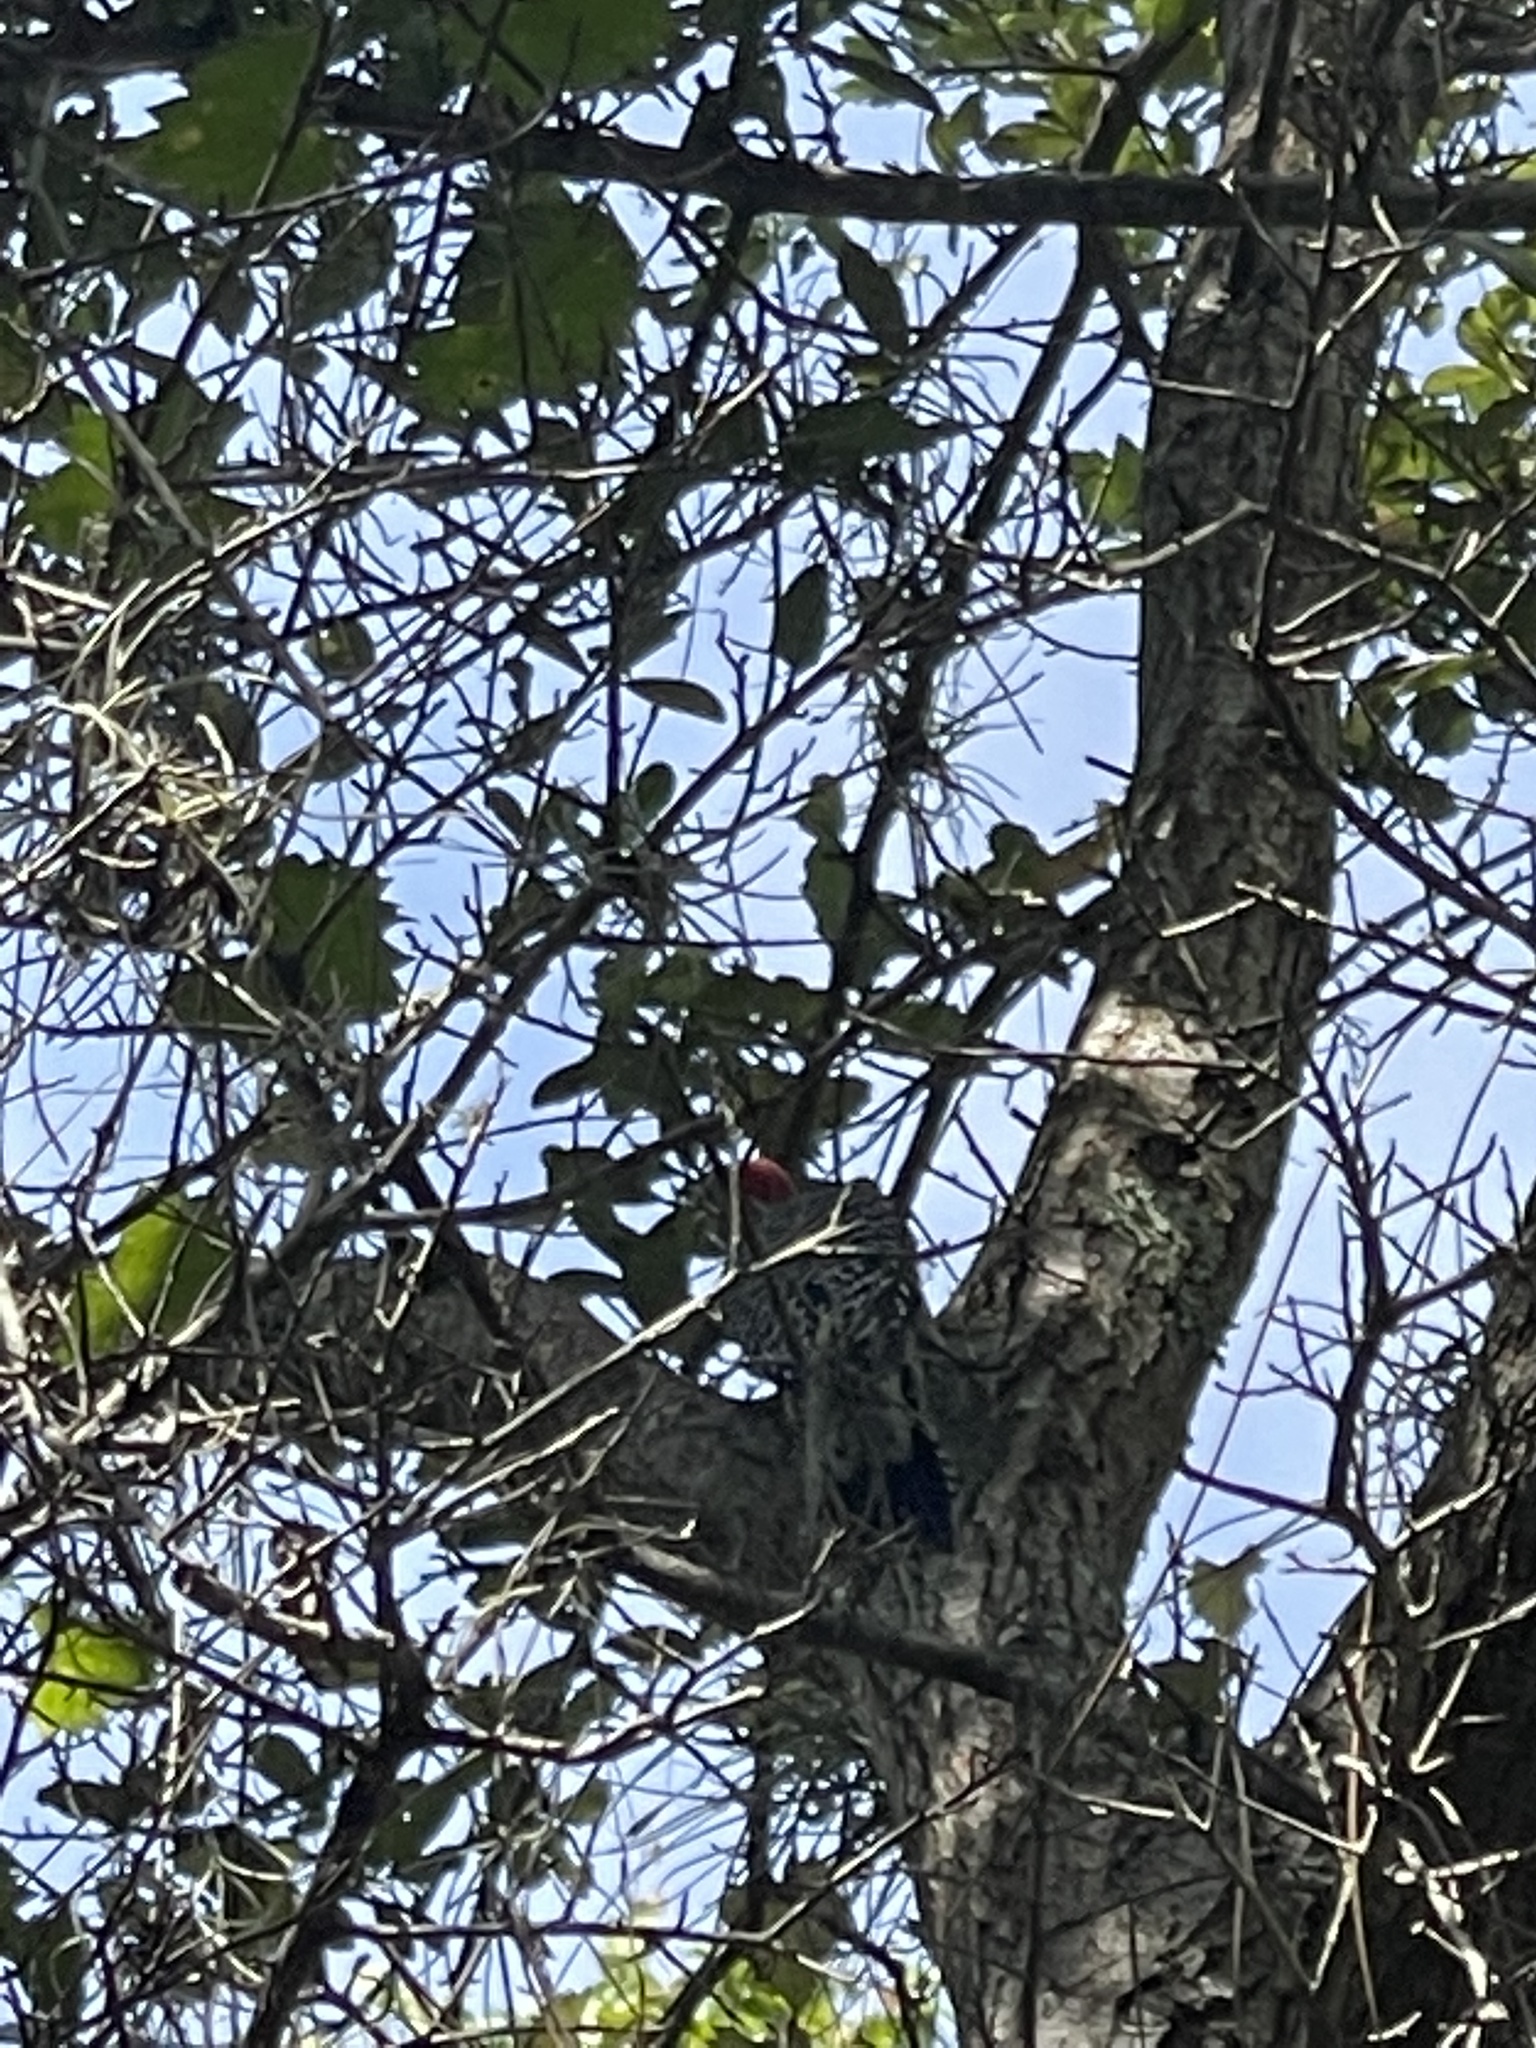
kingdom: Animalia
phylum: Chordata
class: Aves
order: Piciformes
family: Picidae
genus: Melanerpes
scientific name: Melanerpes carolinus
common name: Red-bellied woodpecker
